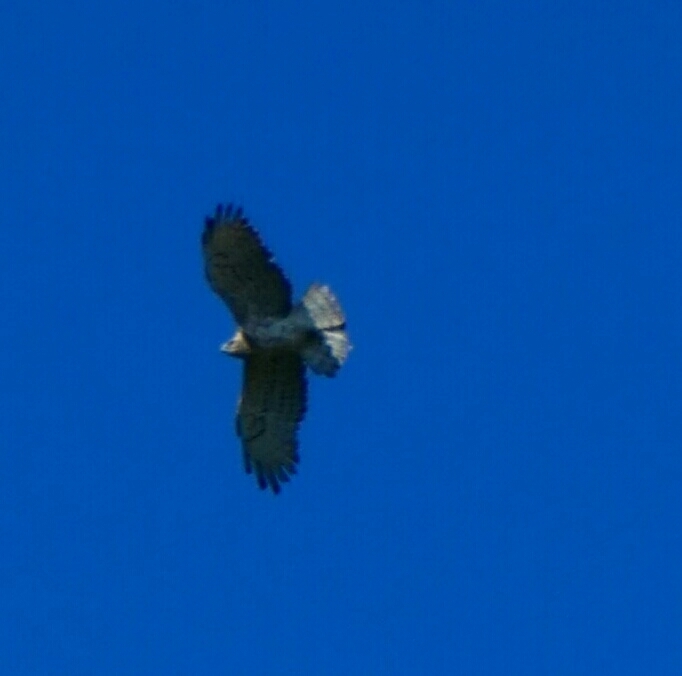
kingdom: Animalia
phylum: Chordata
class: Aves
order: Accipitriformes
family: Accipitridae
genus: Circaetus
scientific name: Circaetus gallicus
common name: Short-toed snake eagle
